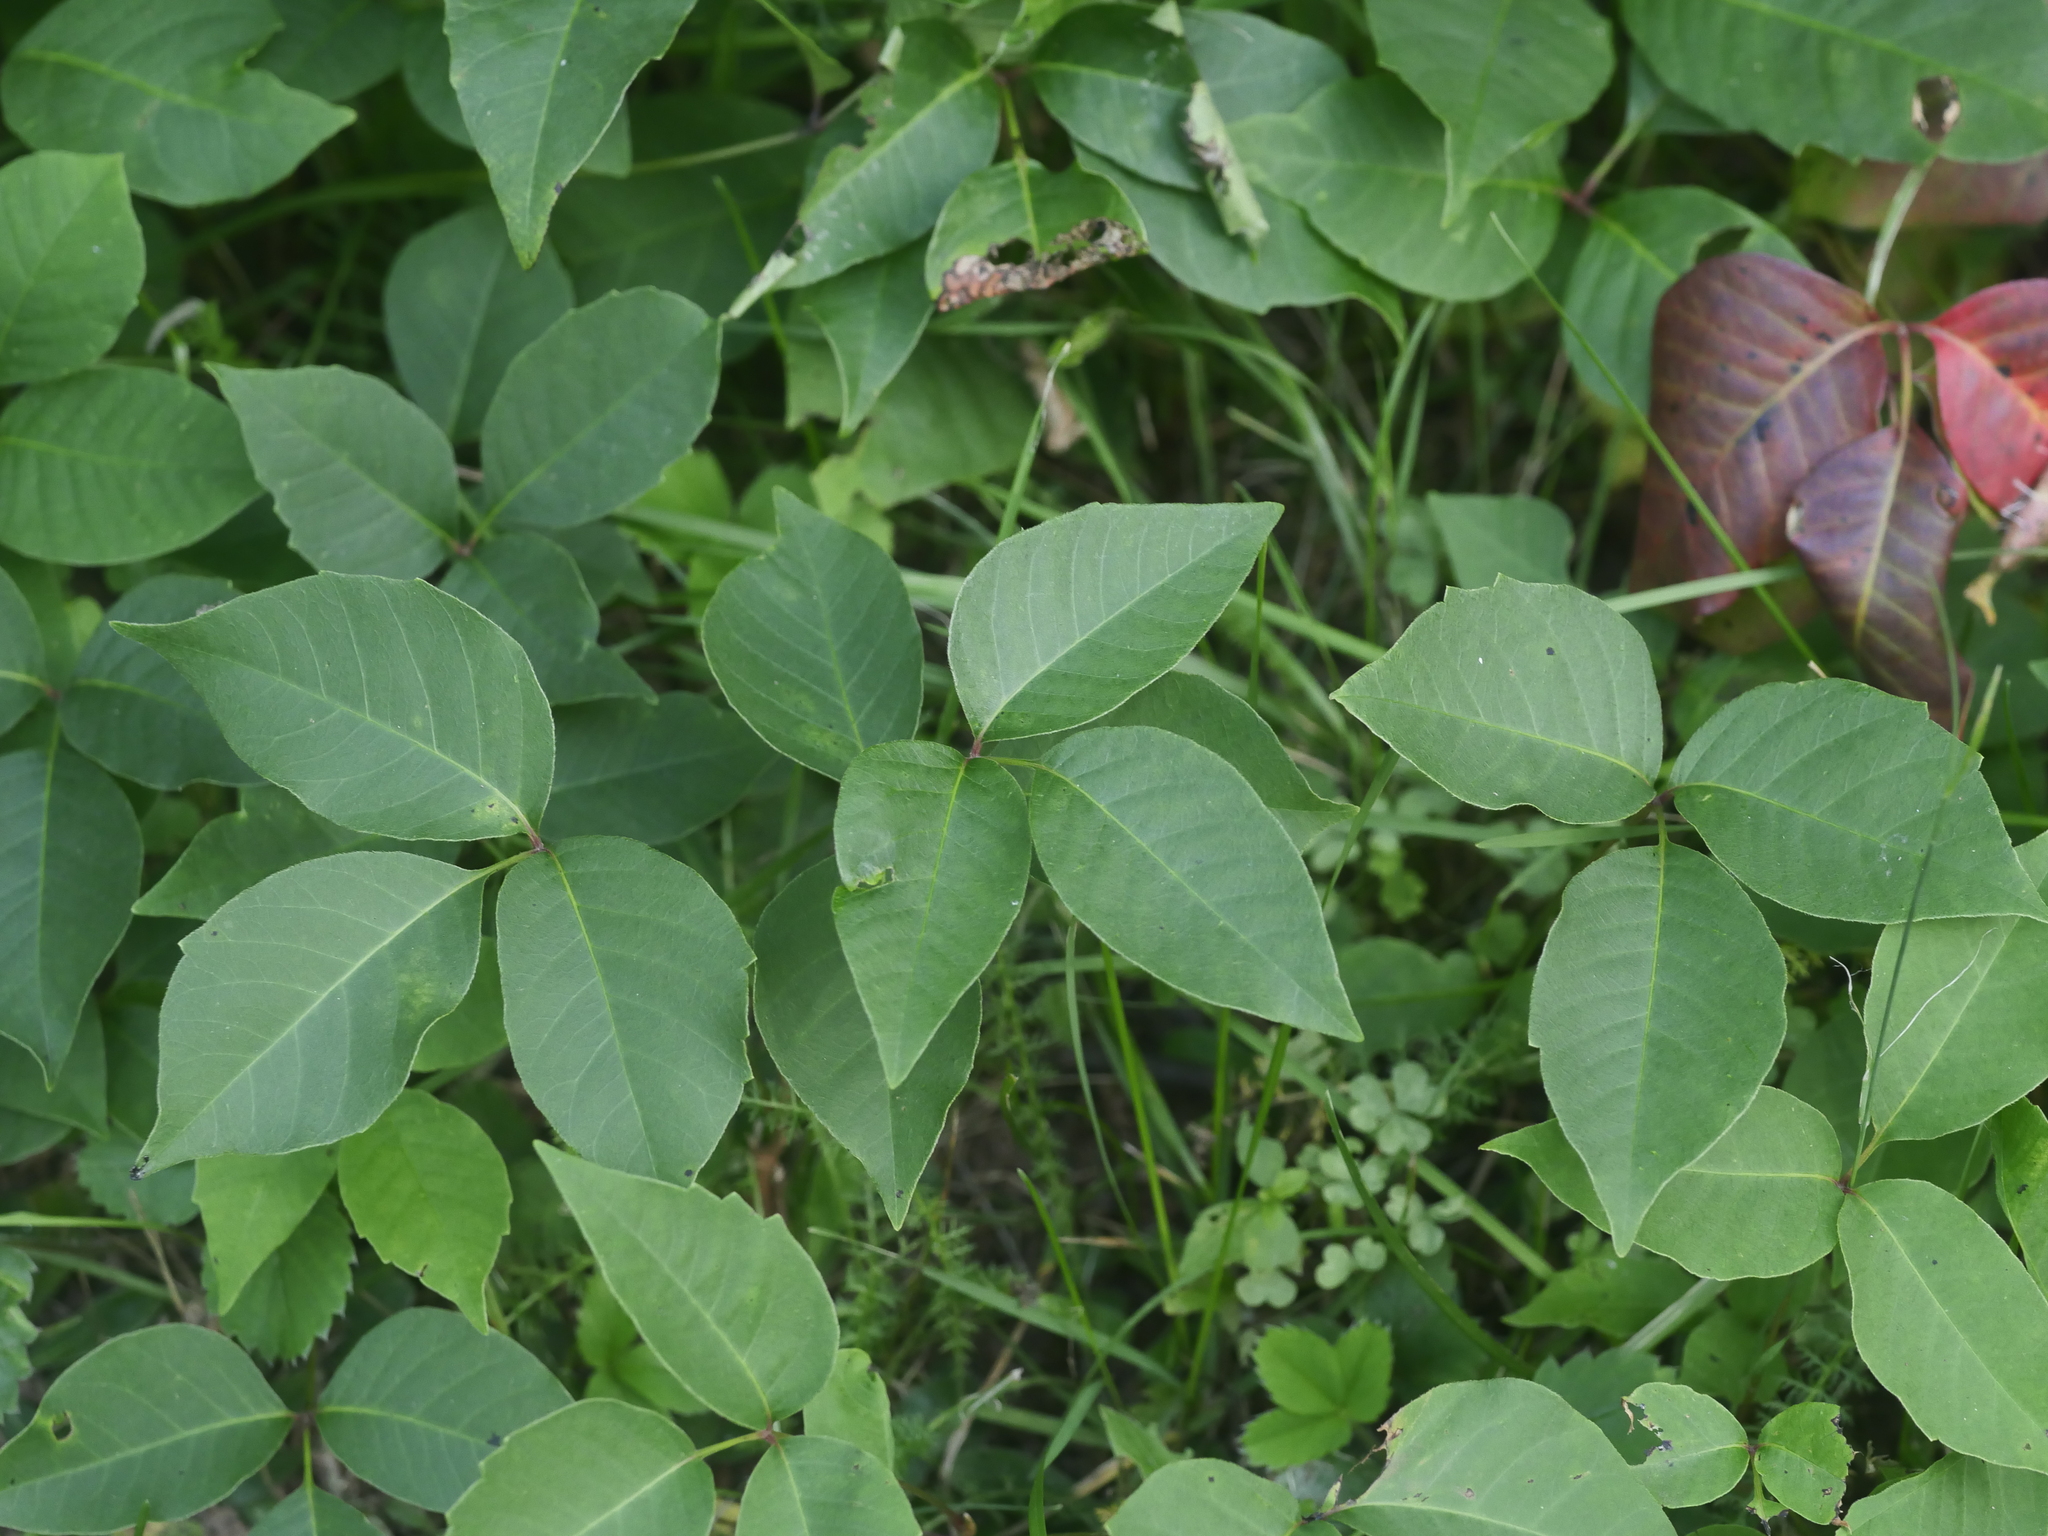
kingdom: Plantae
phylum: Tracheophyta
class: Magnoliopsida
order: Sapindales
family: Anacardiaceae
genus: Toxicodendron
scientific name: Toxicodendron radicans
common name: Poison ivy
